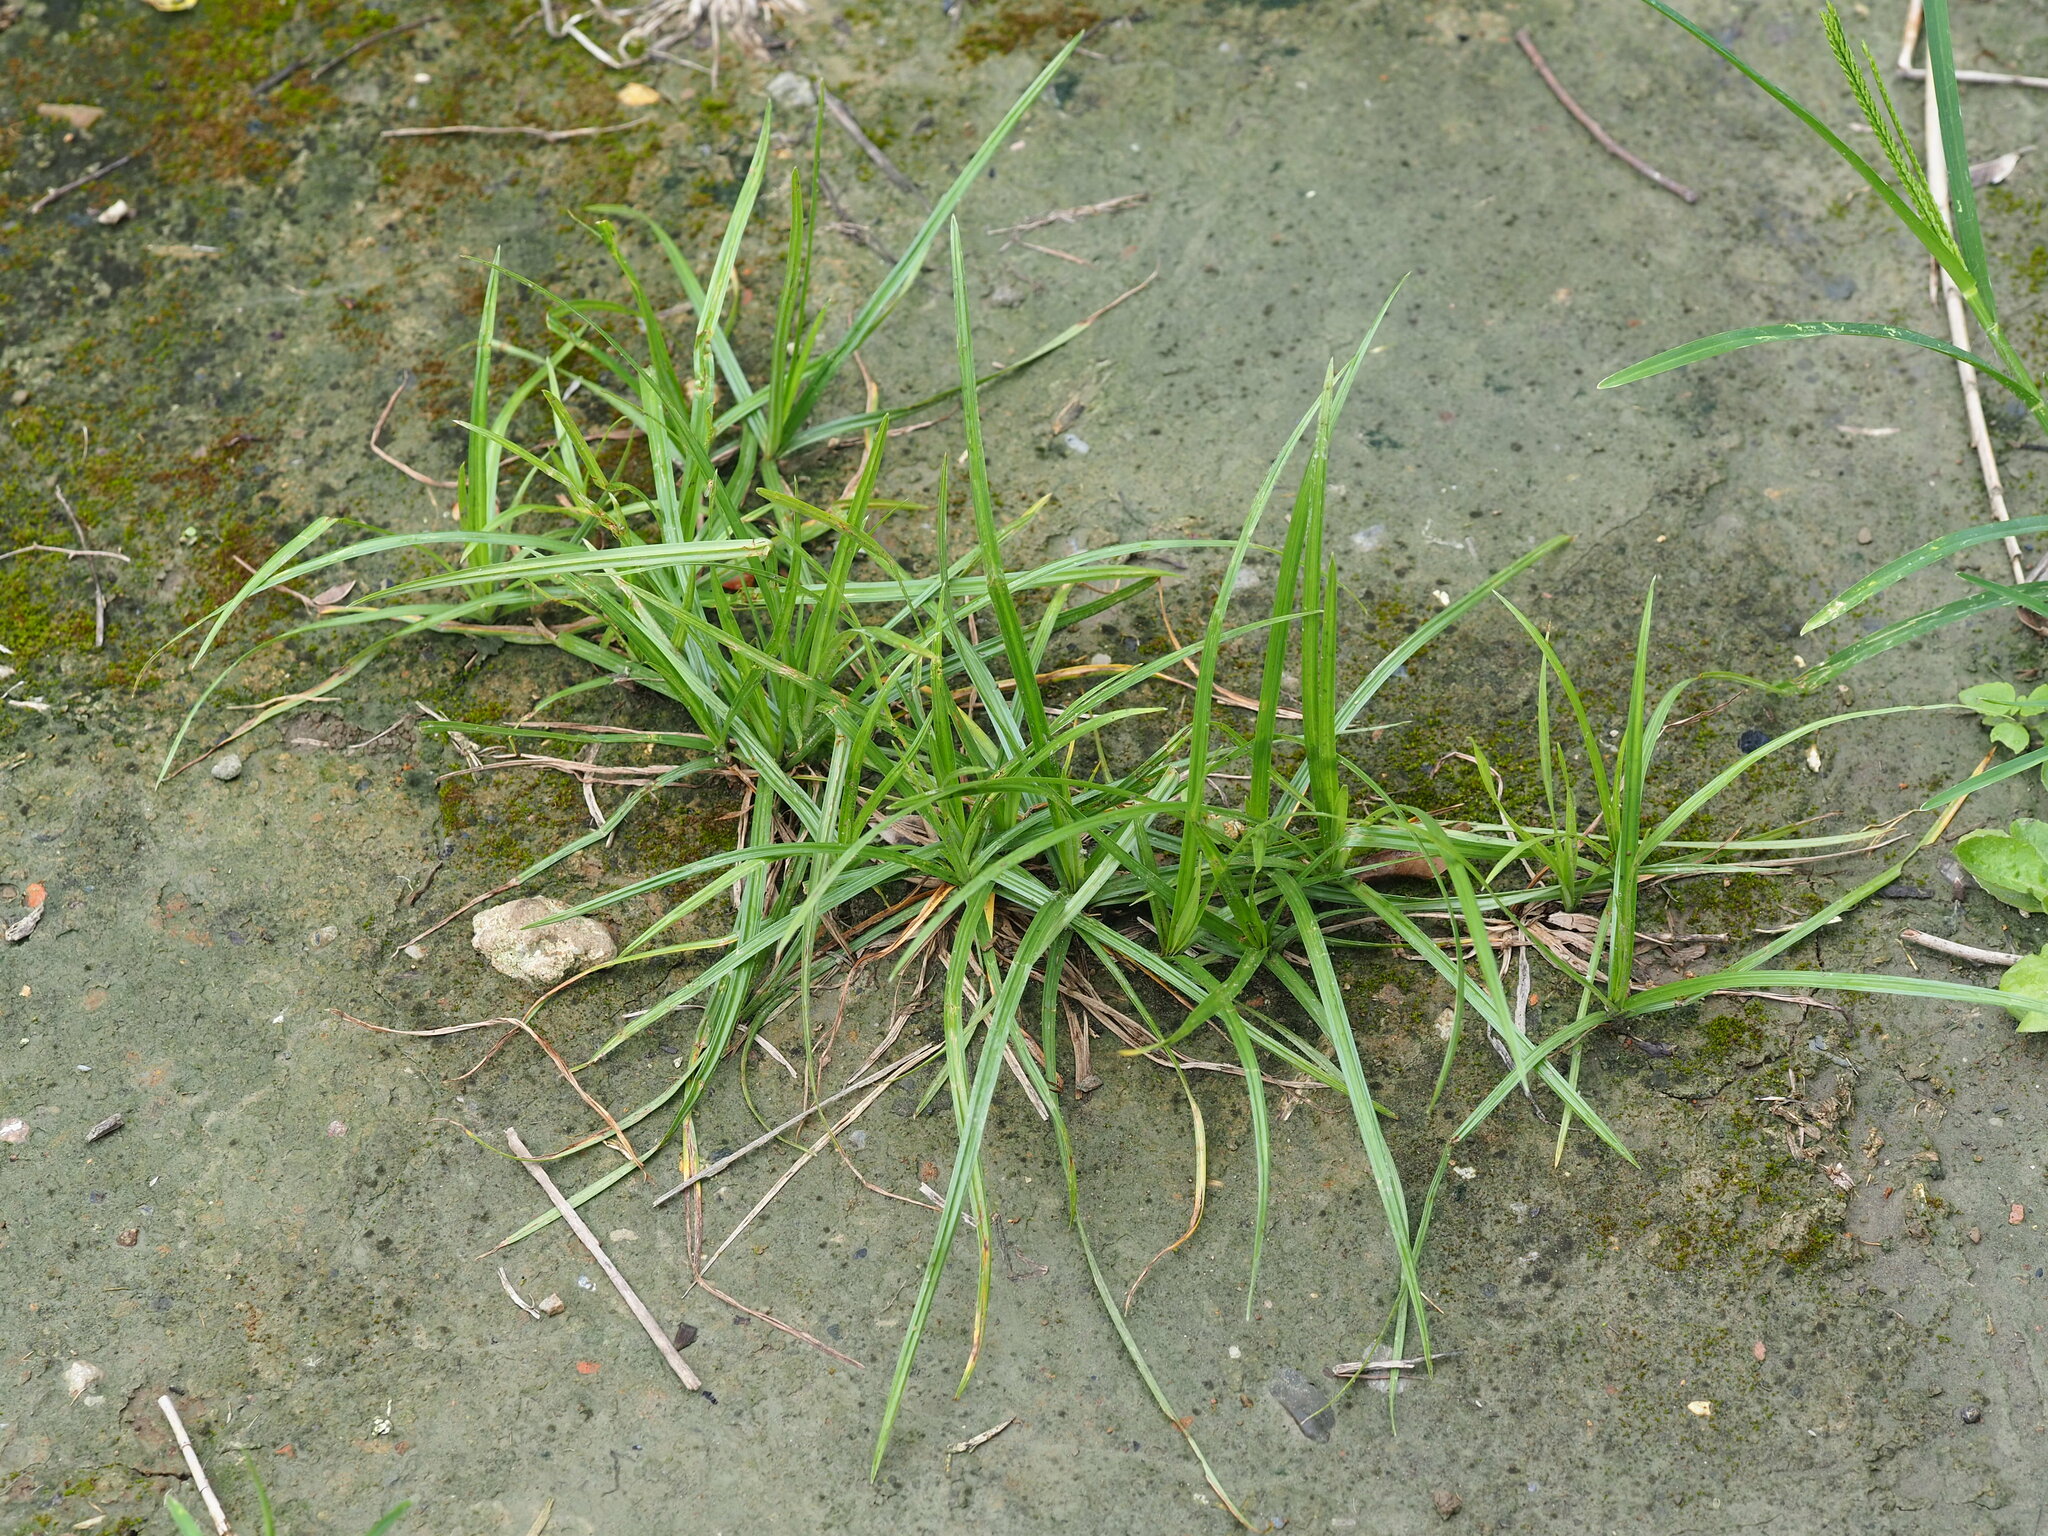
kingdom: Plantae
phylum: Tracheophyta
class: Liliopsida
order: Poales
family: Cyperaceae
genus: Cyperus
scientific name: Cyperus rotundus
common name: Nutgrass
